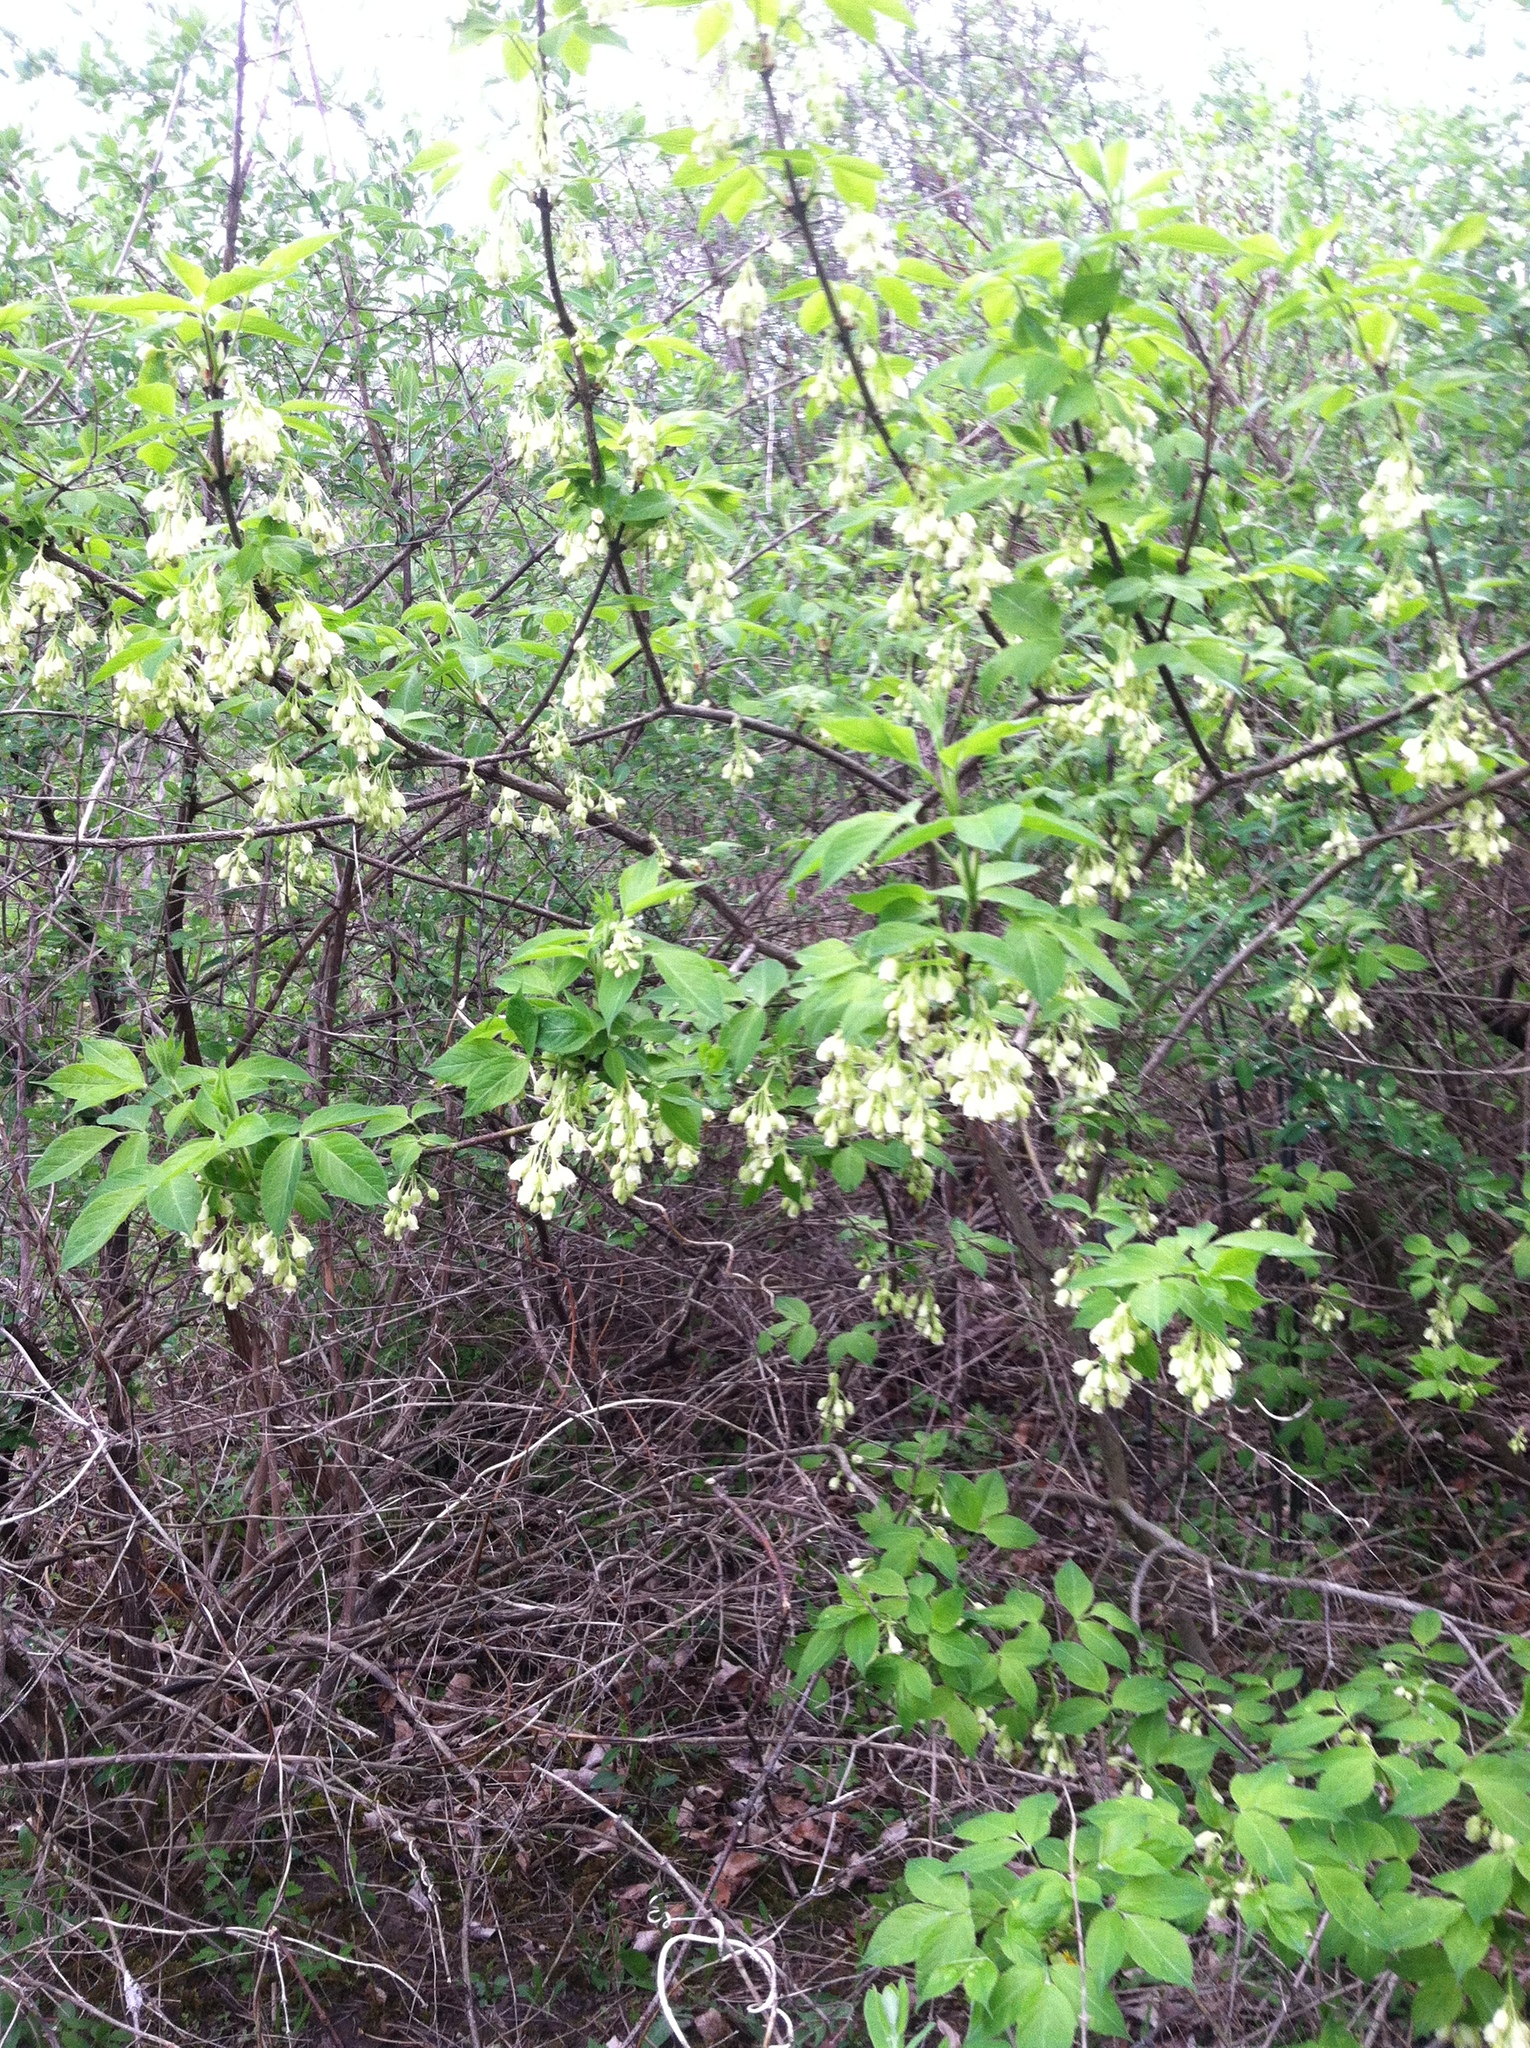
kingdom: Plantae
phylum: Tracheophyta
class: Magnoliopsida
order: Crossosomatales
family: Staphyleaceae
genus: Staphylea
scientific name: Staphylea trifolia
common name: American bladdernut
